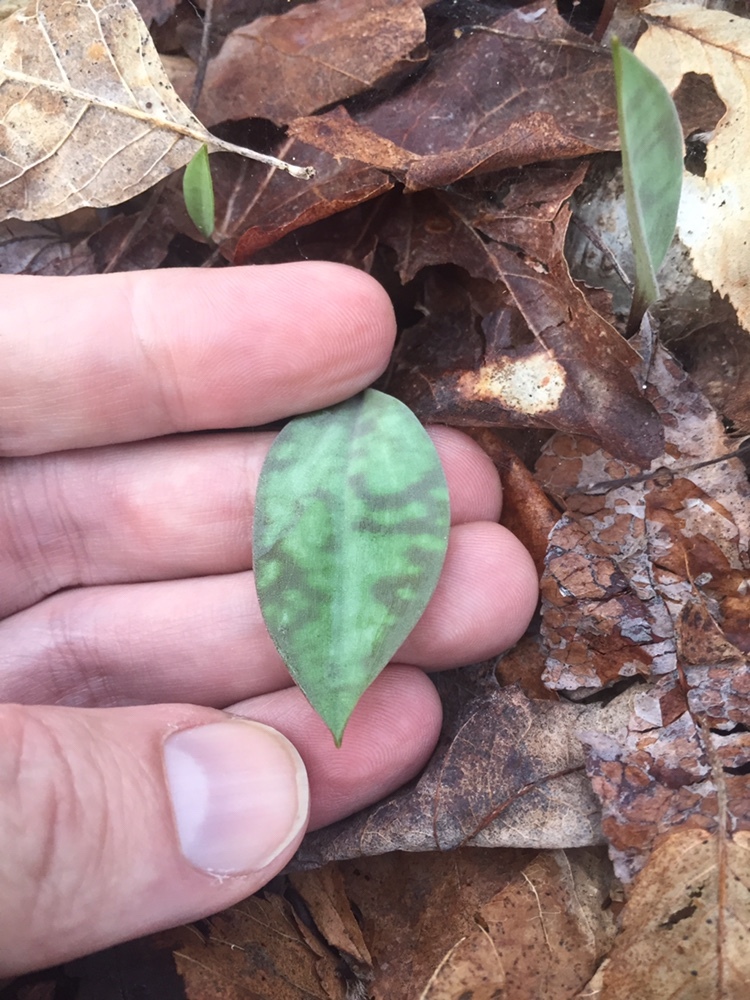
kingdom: Plantae
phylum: Tracheophyta
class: Liliopsida
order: Liliales
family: Liliaceae
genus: Erythronium
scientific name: Erythronium
